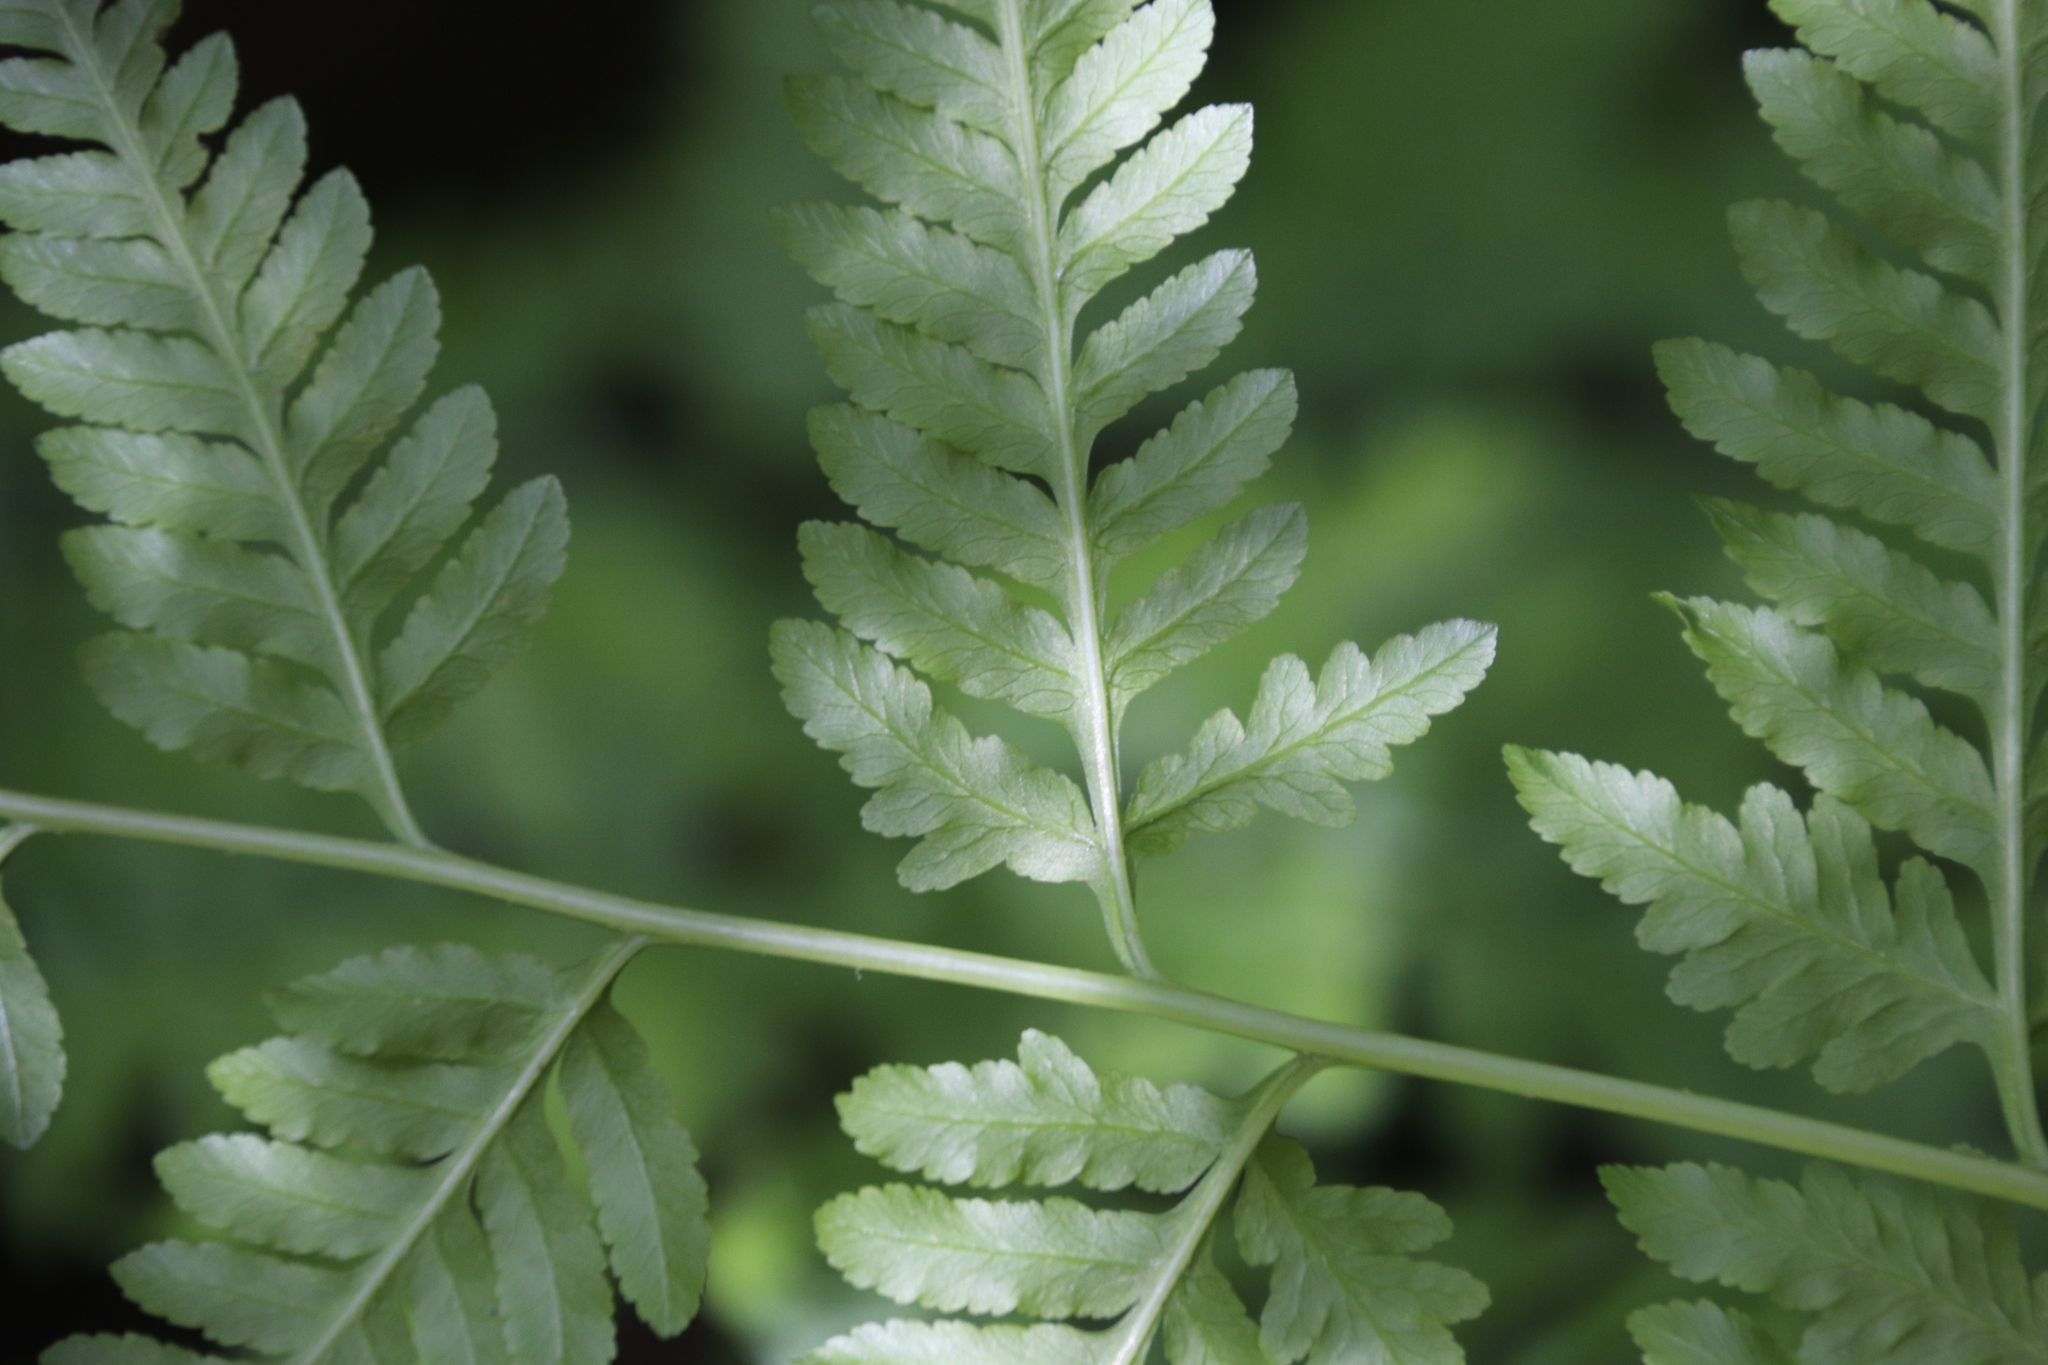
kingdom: Plantae
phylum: Tracheophyta
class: Polypodiopsida
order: Polypodiales
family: Pteridaceae
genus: Pteris
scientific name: Pteris tremula
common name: Australian brake
